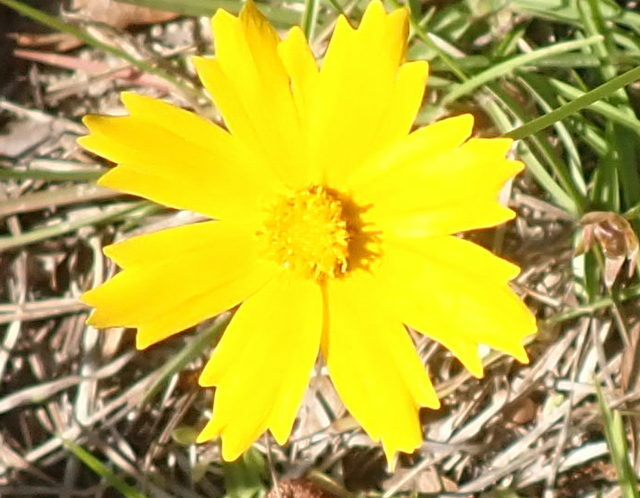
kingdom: Plantae
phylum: Tracheophyta
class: Magnoliopsida
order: Asterales
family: Asteraceae
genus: Coreopsis
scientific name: Coreopsis lanceolata
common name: Garden coreopsis
